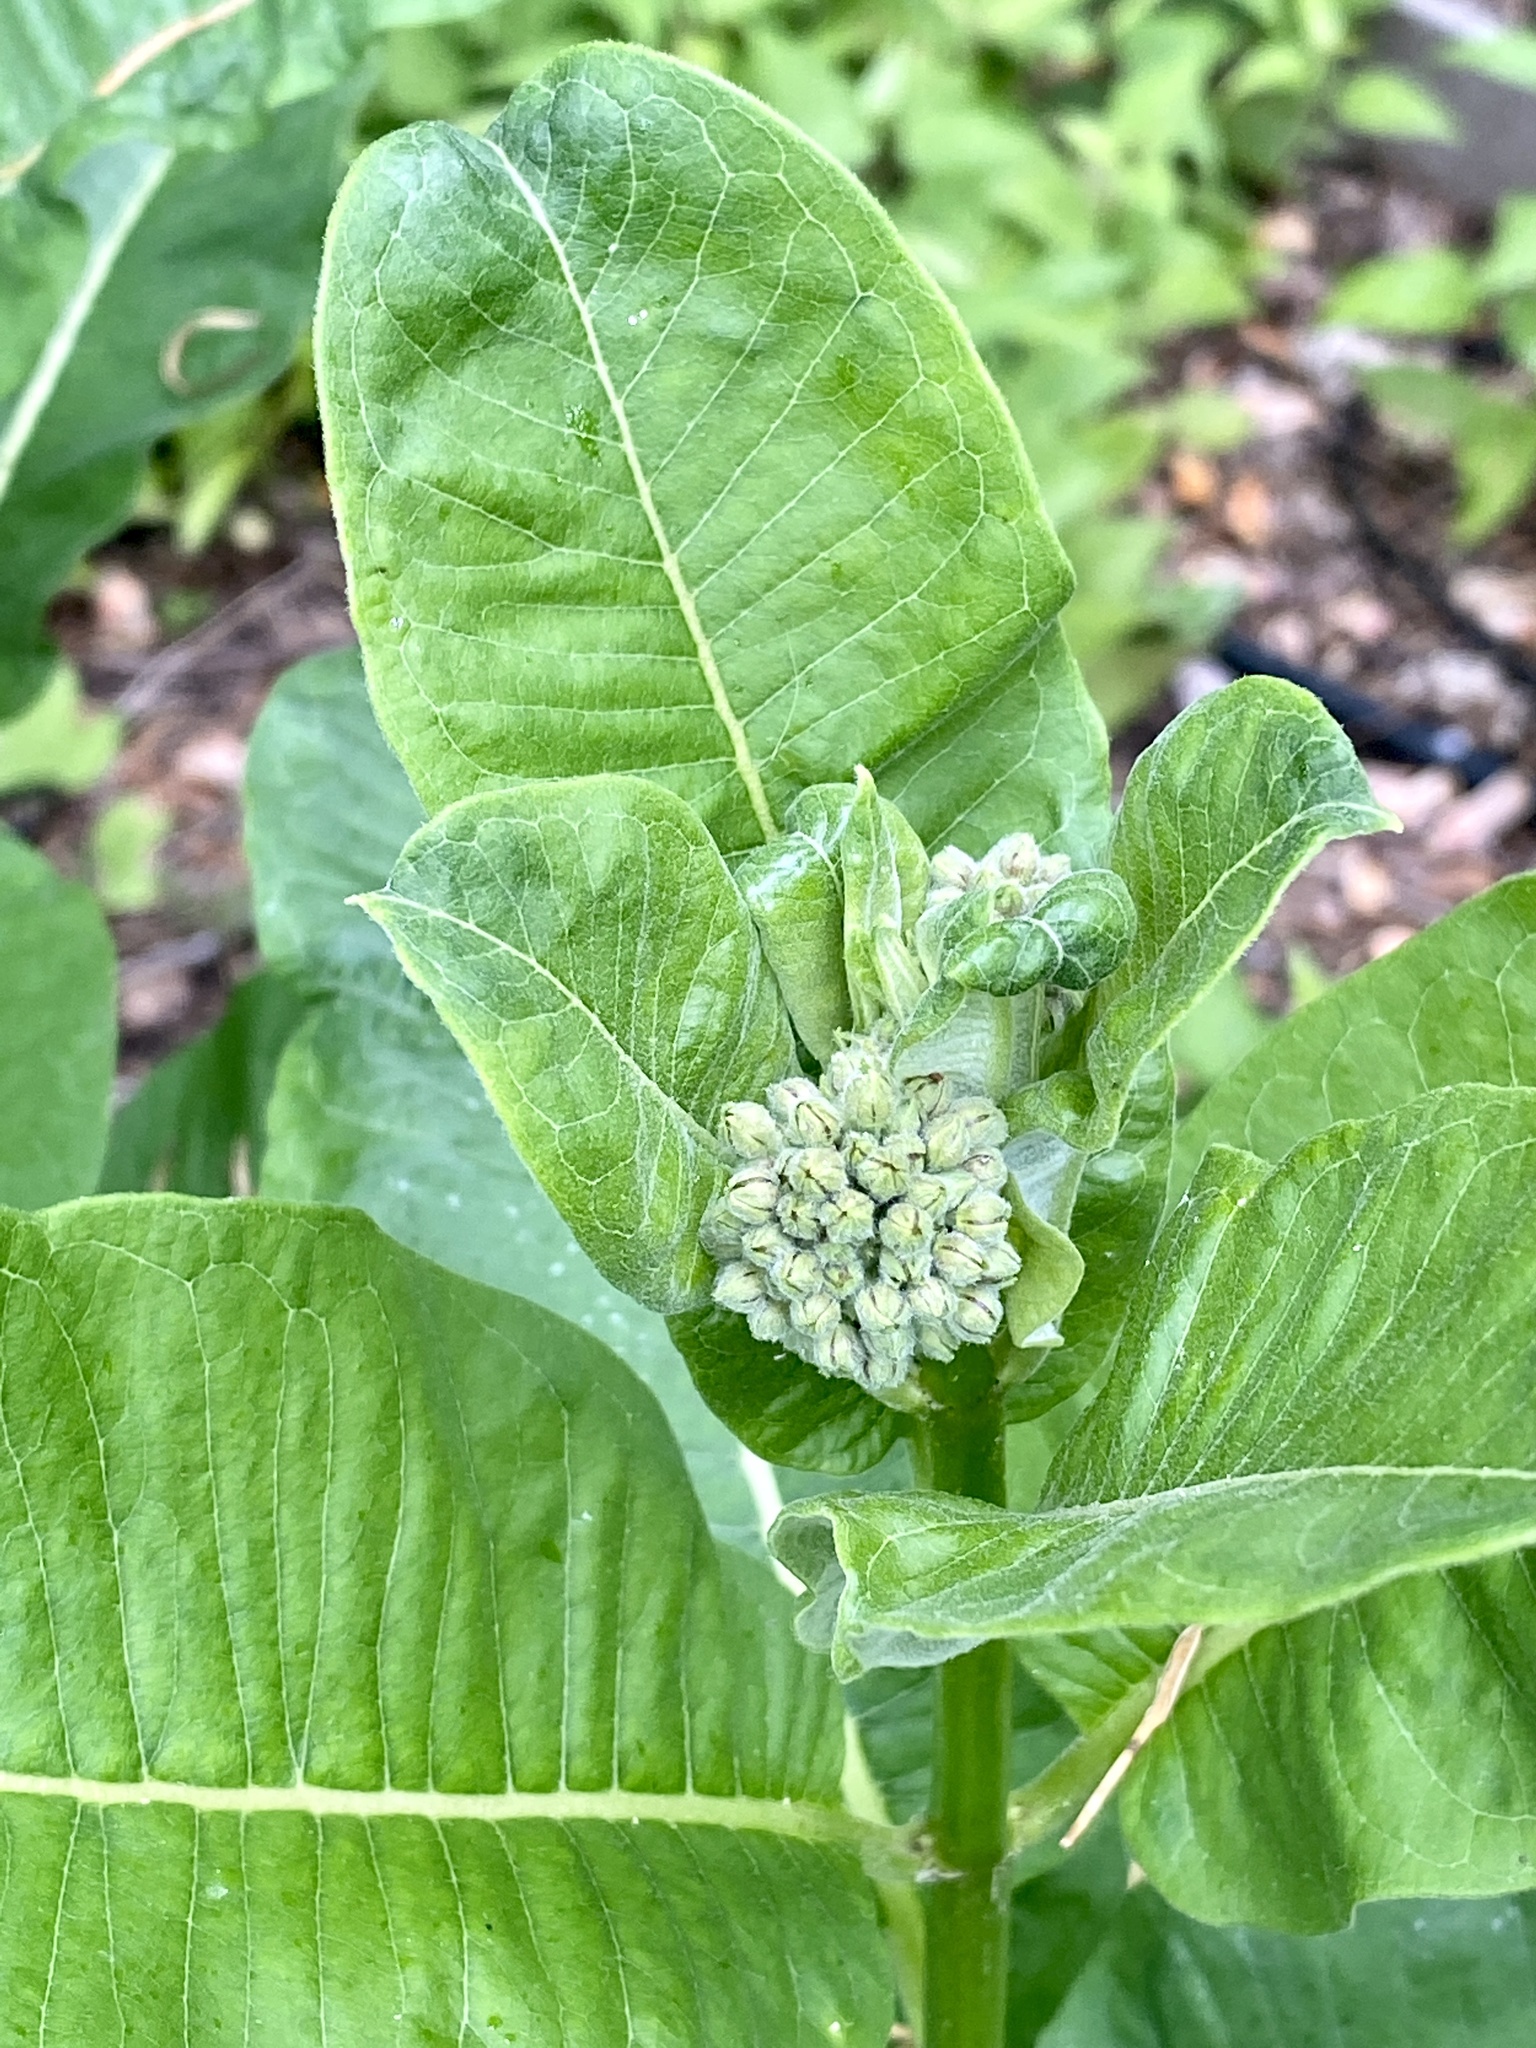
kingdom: Plantae
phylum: Tracheophyta
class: Magnoliopsida
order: Gentianales
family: Apocynaceae
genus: Asclepias
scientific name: Asclepias syriaca
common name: Common milkweed
